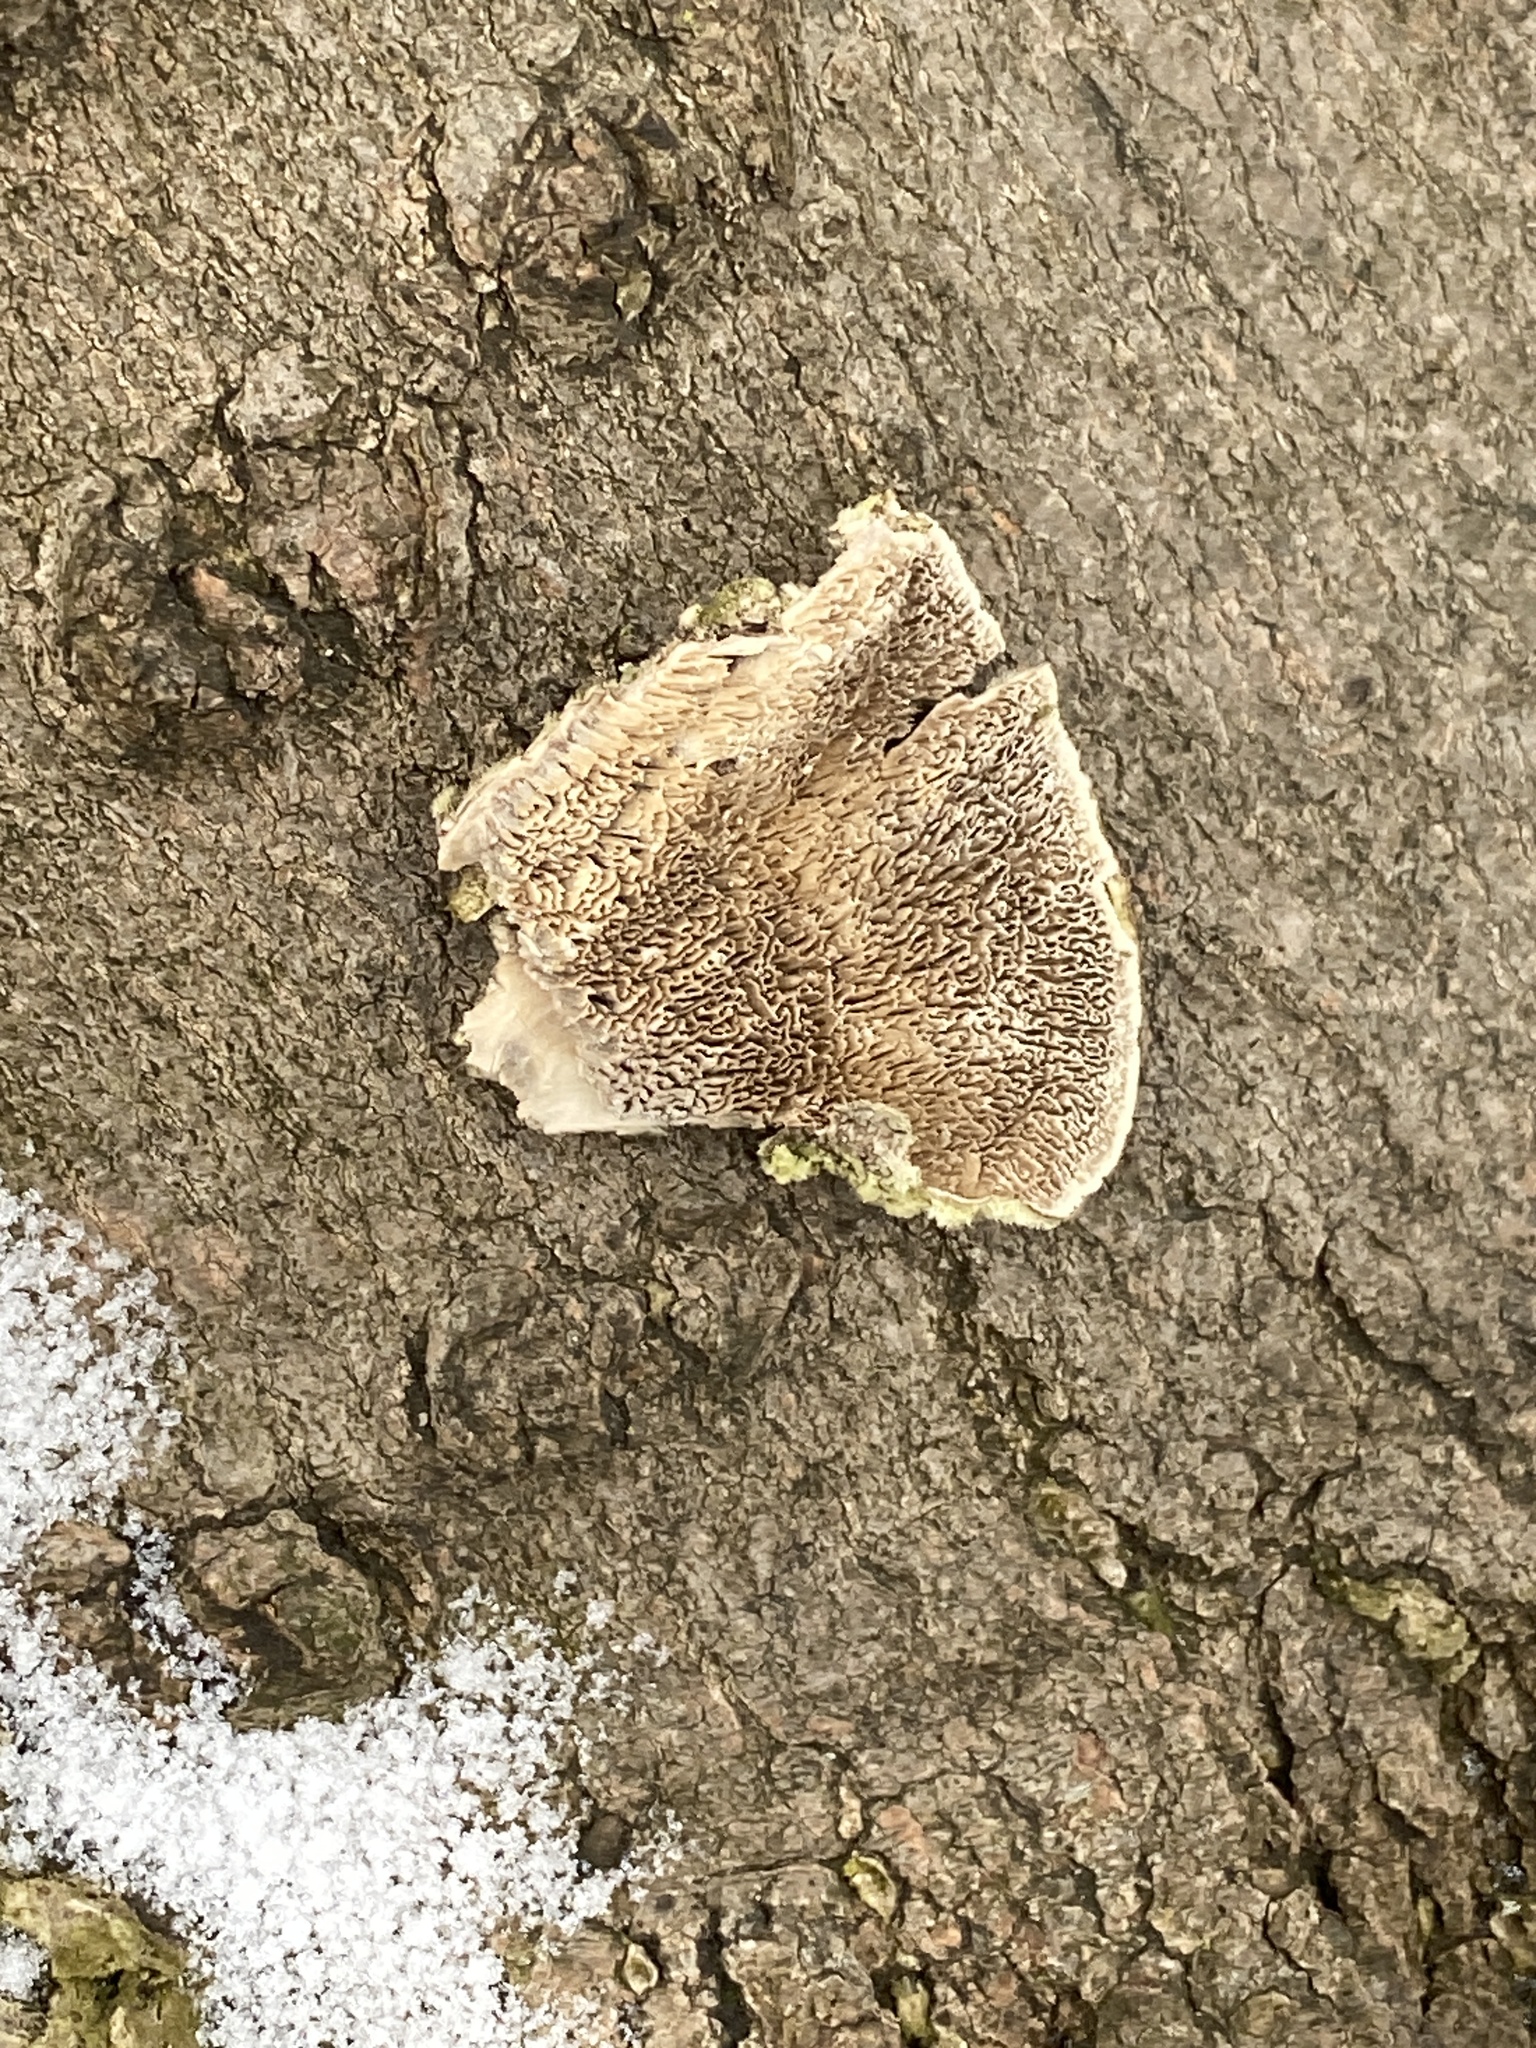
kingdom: Fungi
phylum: Basidiomycota
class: Agaricomycetes
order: Polyporales
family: Cerrenaceae
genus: Cerrena
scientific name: Cerrena unicolor
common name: Mossy maze polypore
